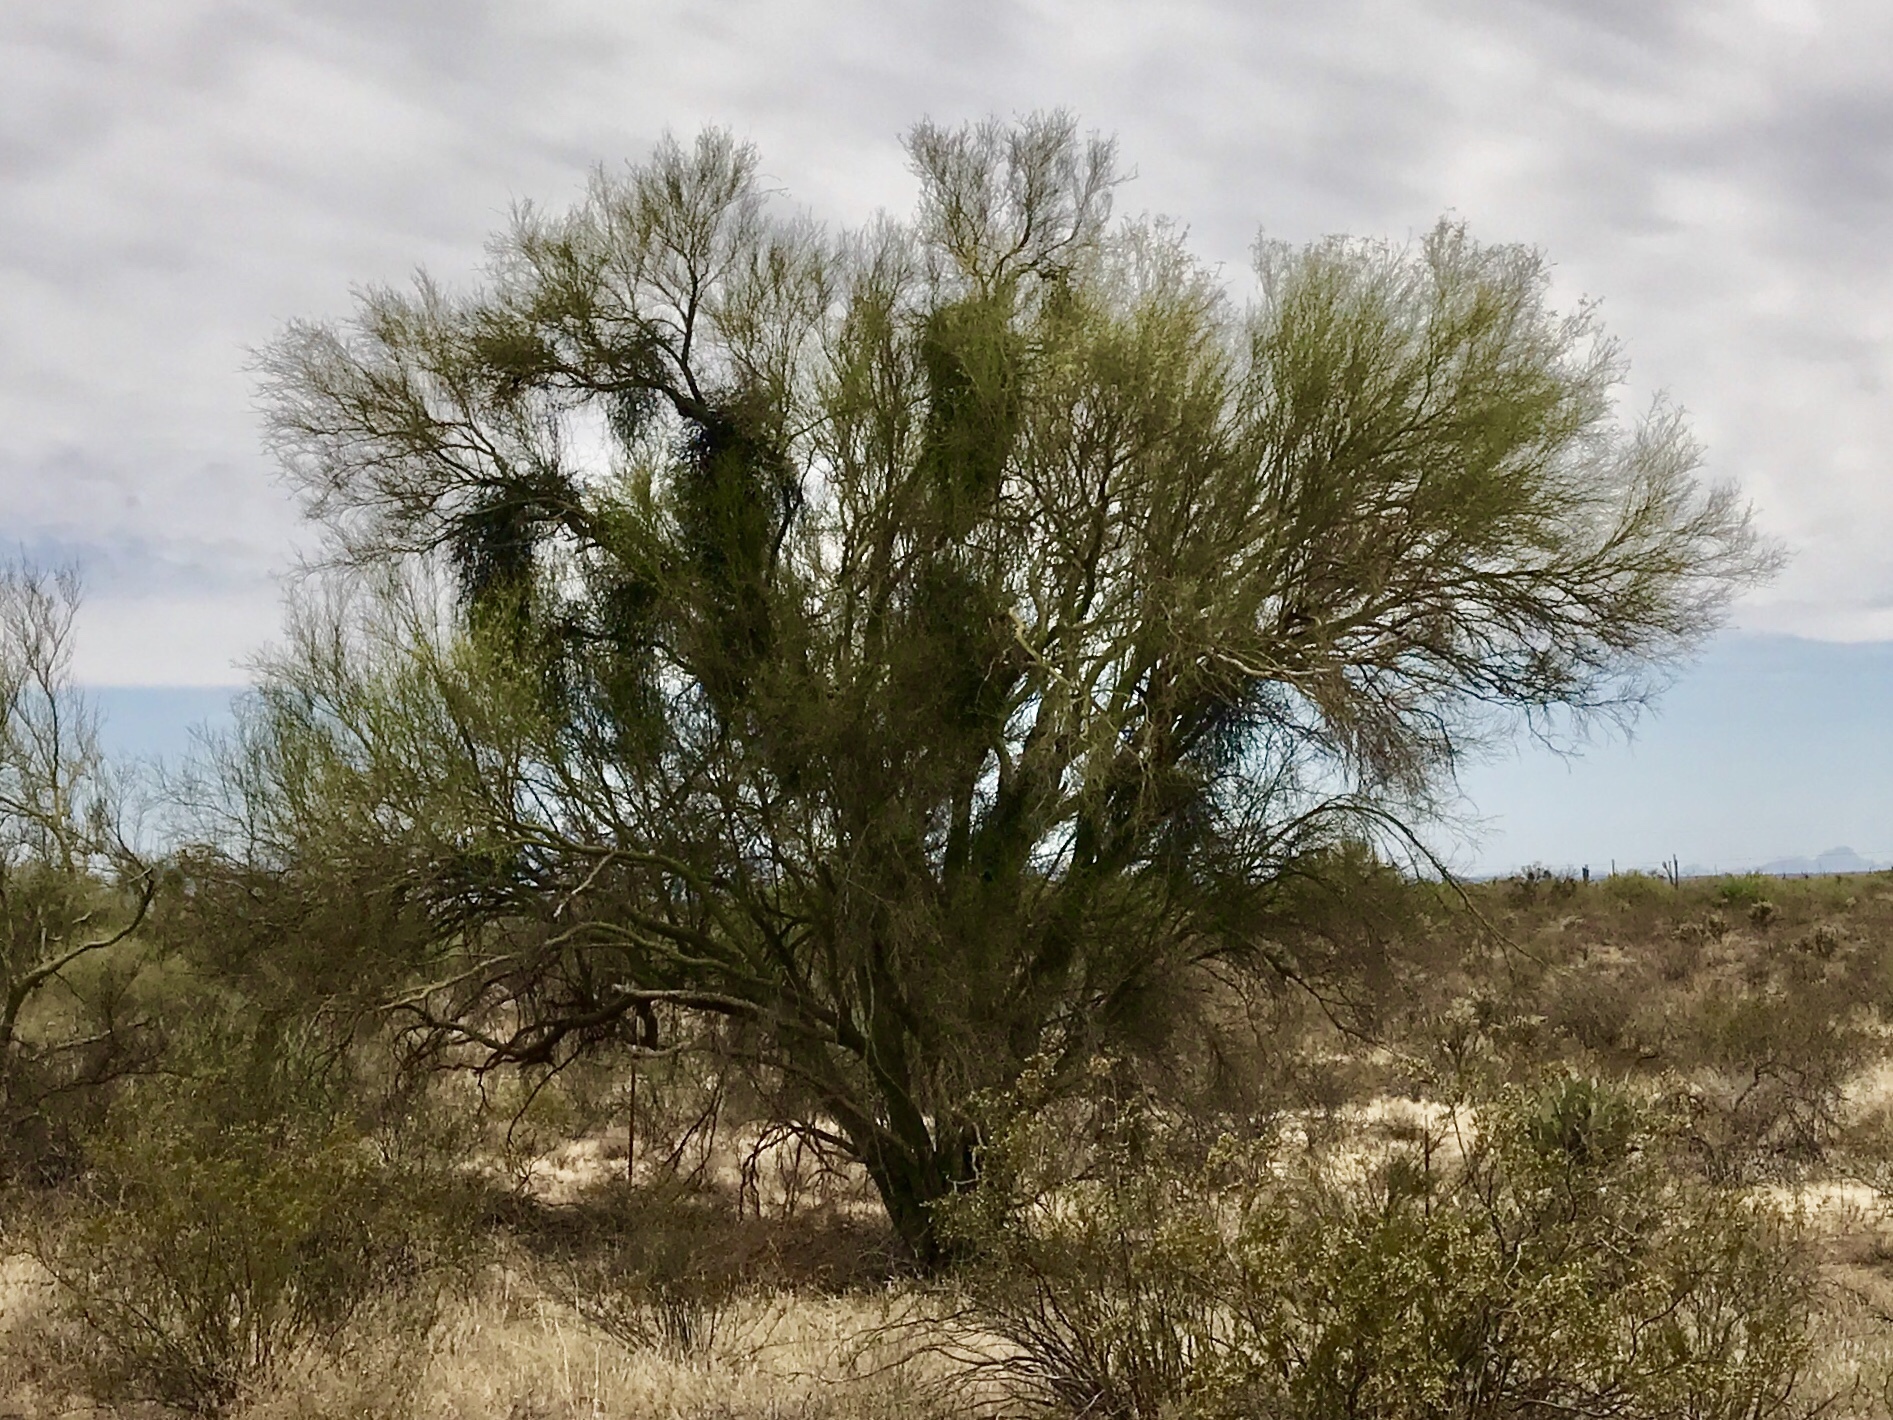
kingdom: Plantae
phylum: Tracheophyta
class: Magnoliopsida
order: Fabales
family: Fabaceae
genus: Parkinsonia
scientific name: Parkinsonia microphylla
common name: Yellow paloverde
